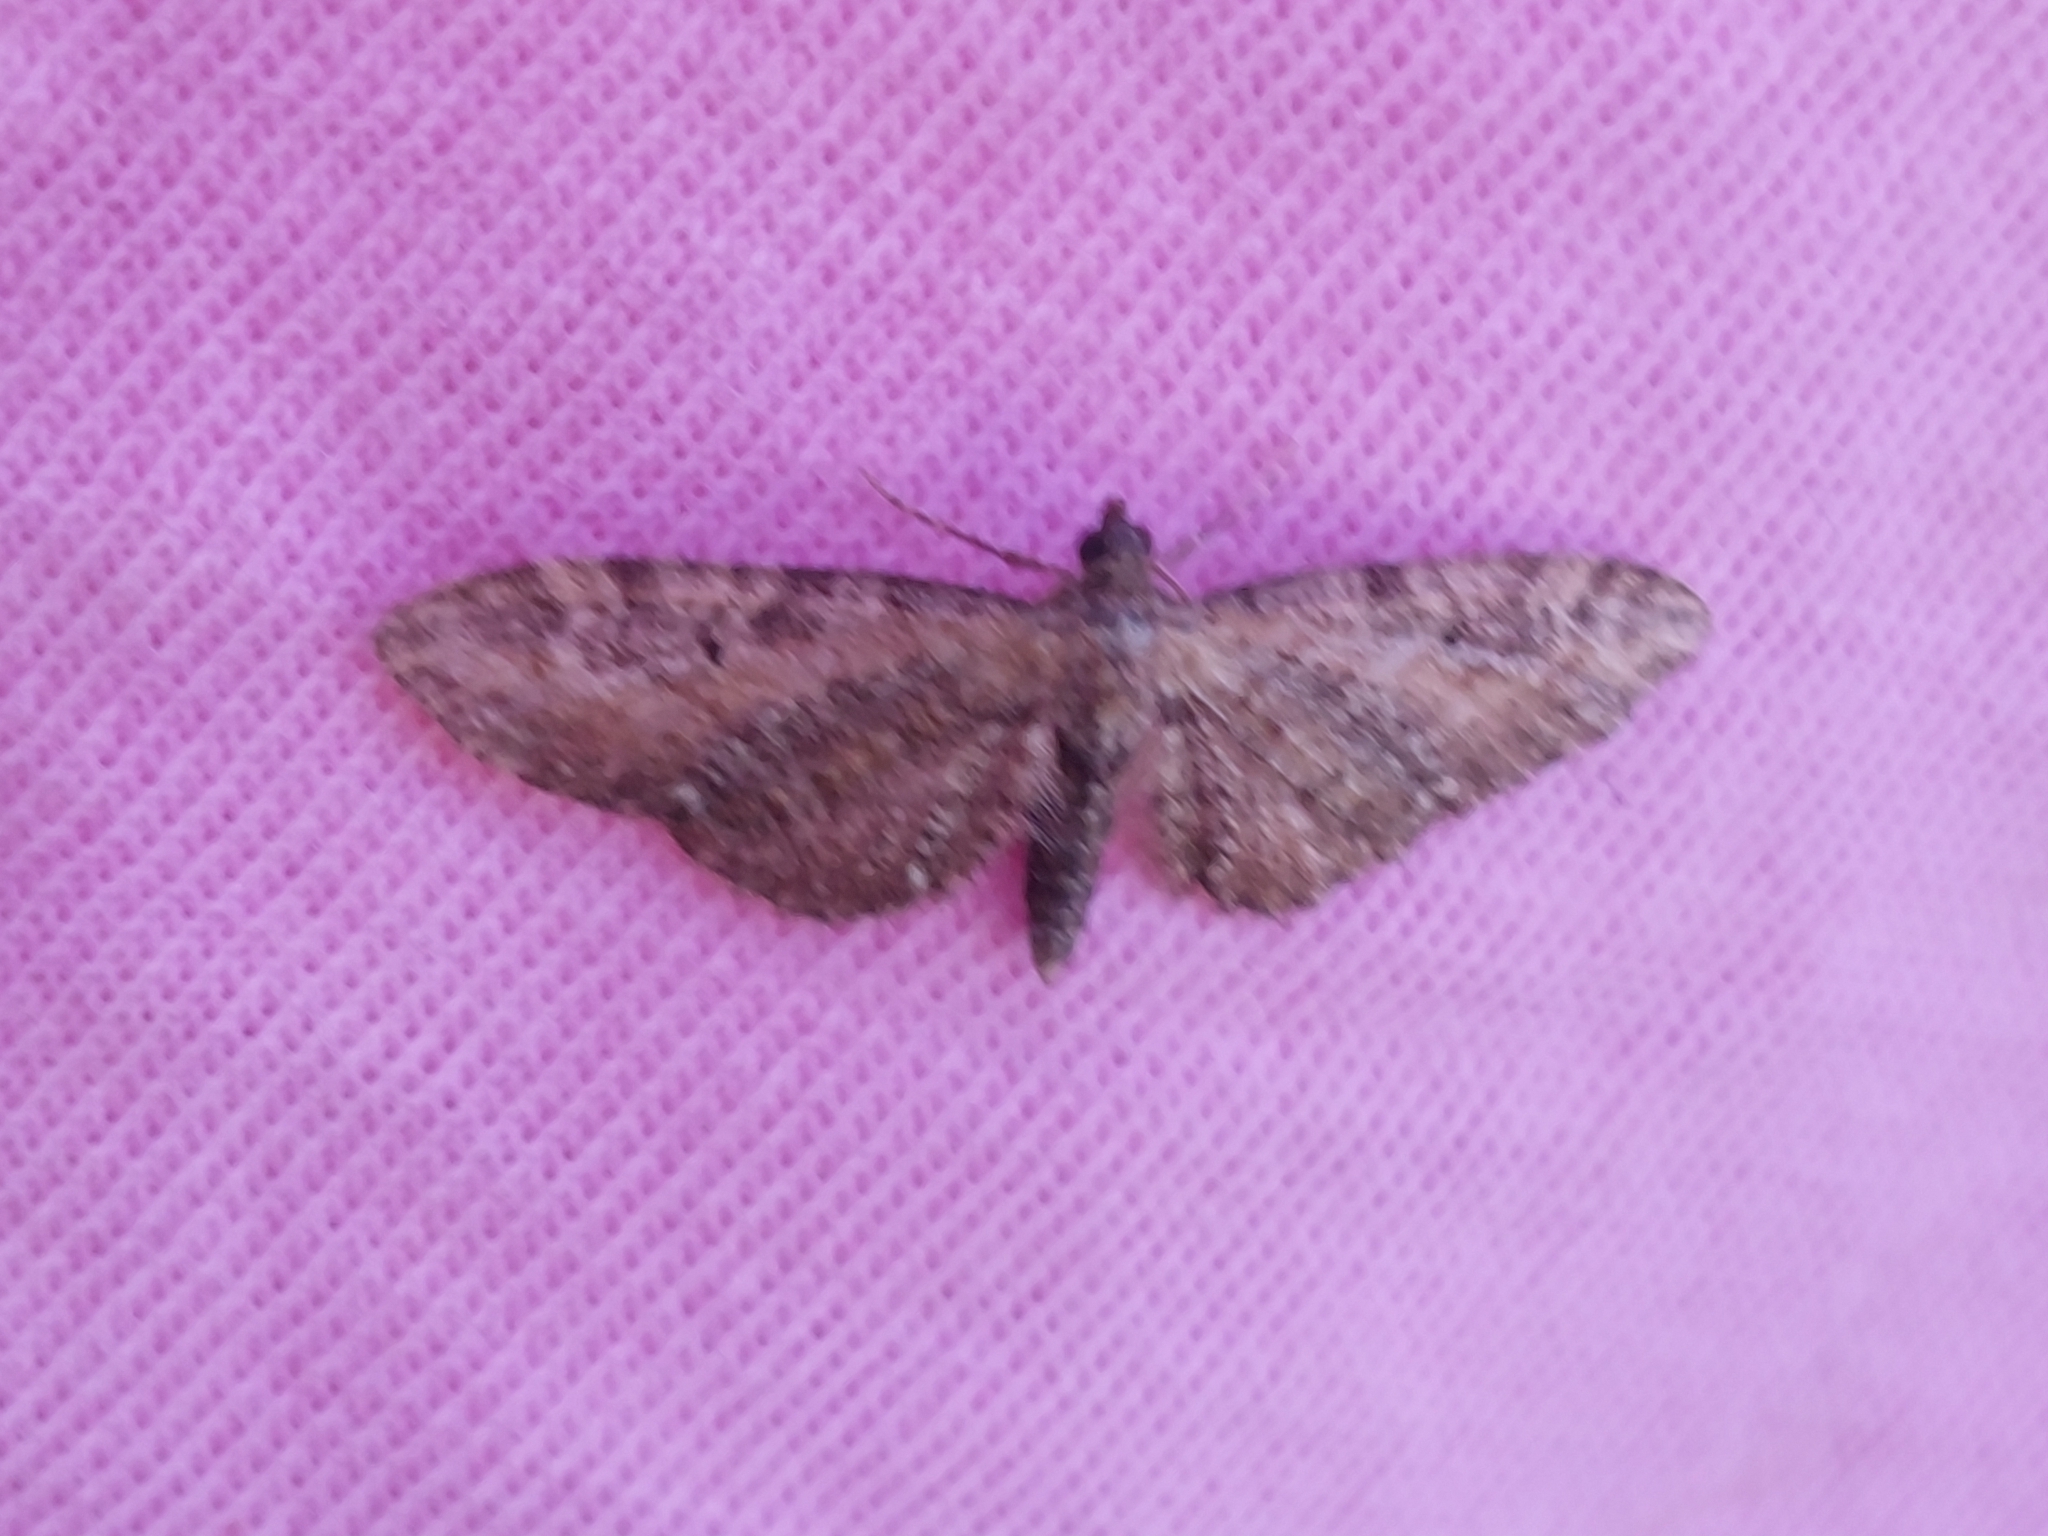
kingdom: Animalia
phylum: Arthropoda
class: Insecta
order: Lepidoptera
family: Geometridae
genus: Eupithecia
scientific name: Eupithecia vulgata
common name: Common pug
